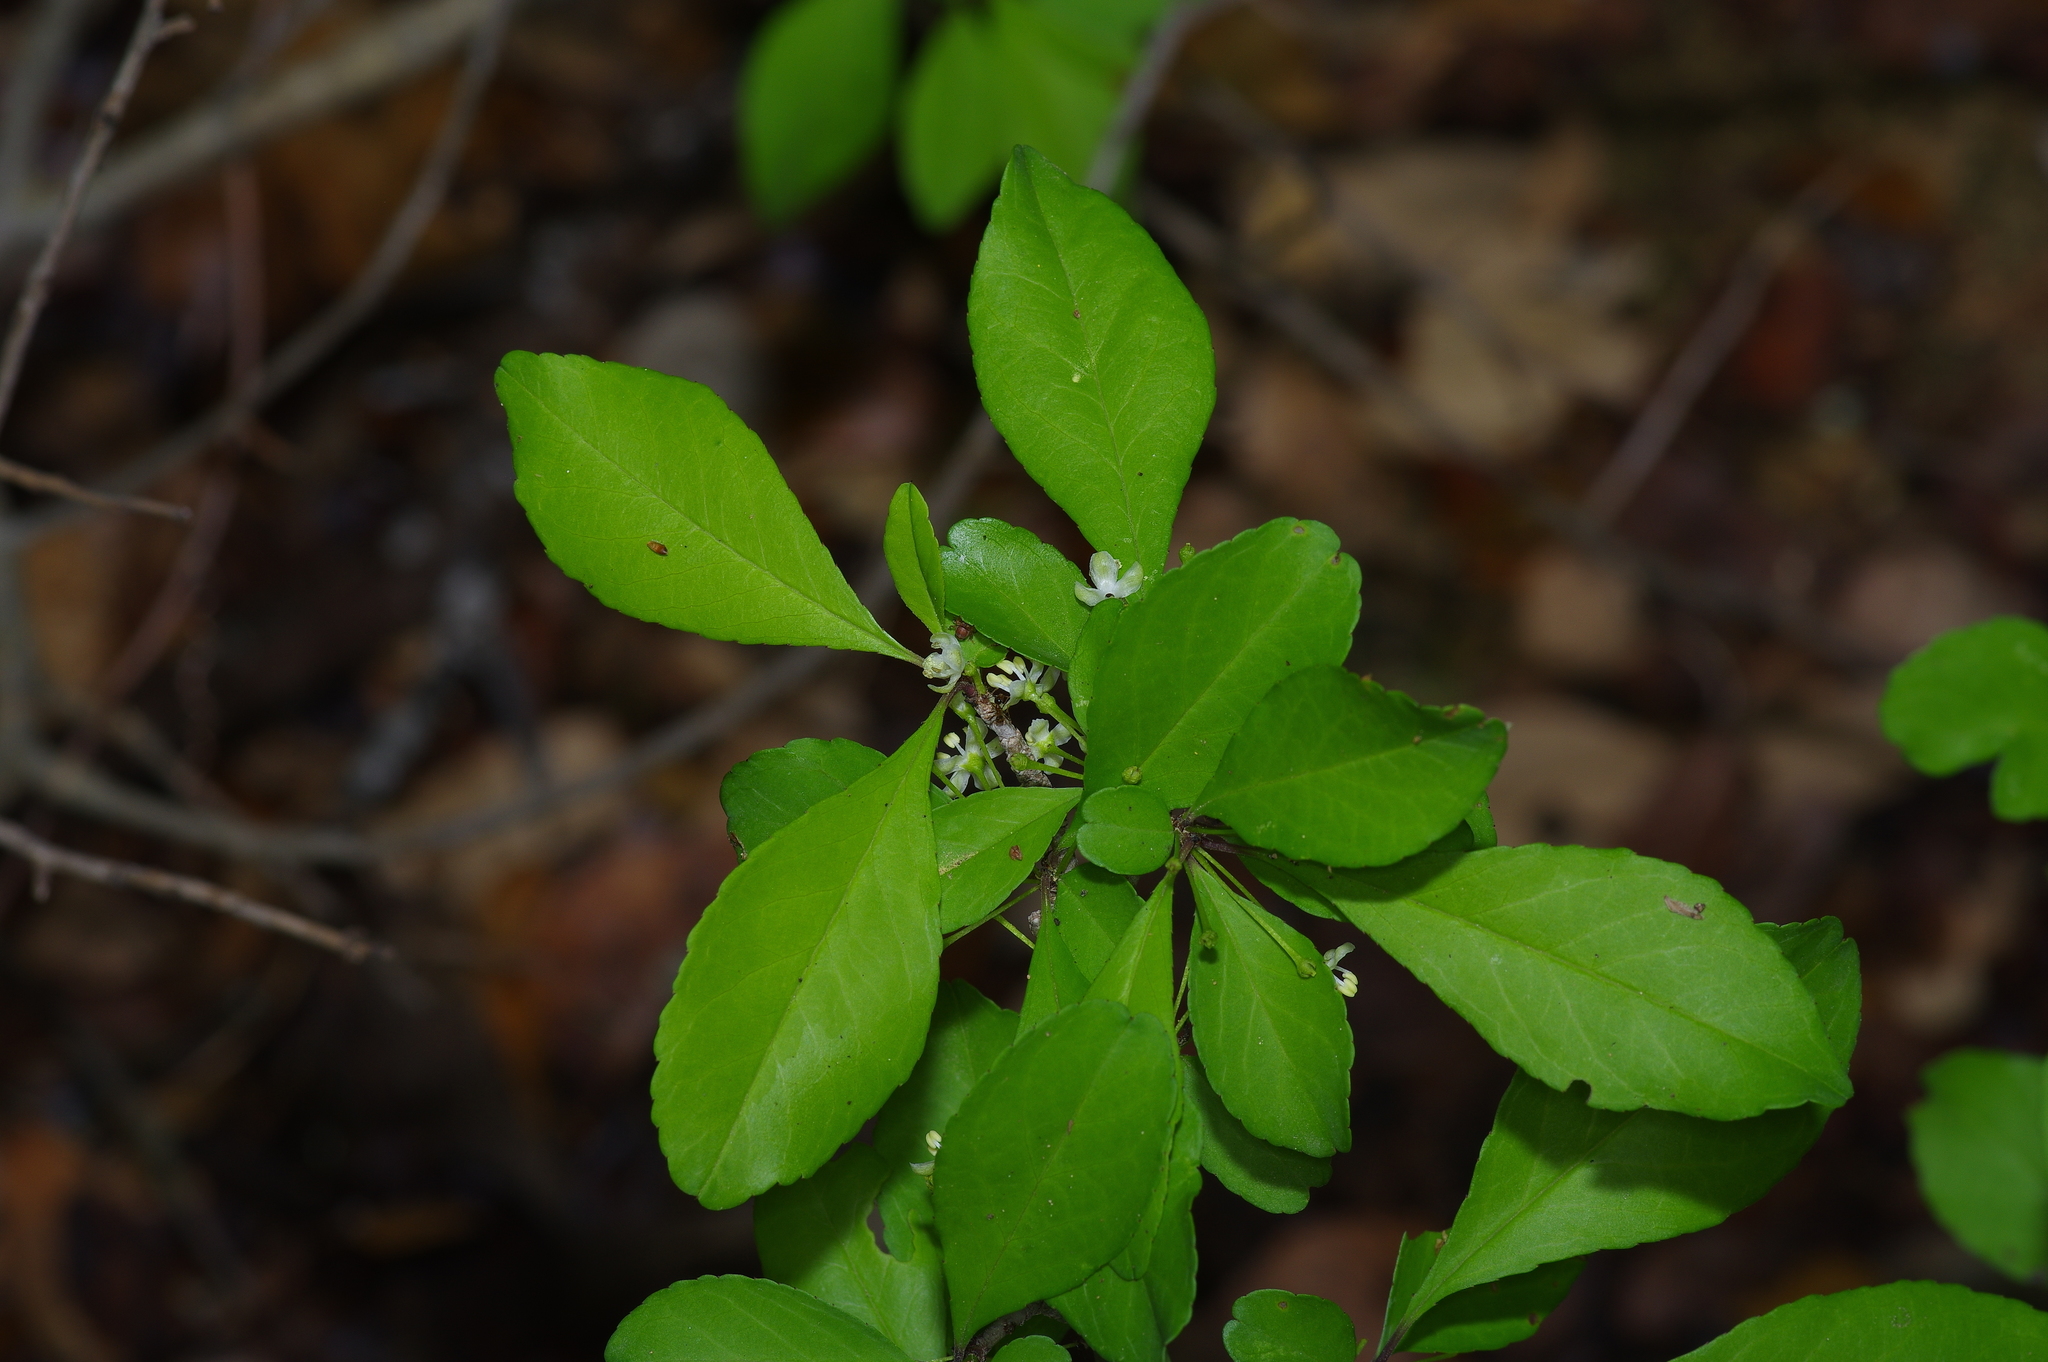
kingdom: Plantae
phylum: Tracheophyta
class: Magnoliopsida
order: Aquifoliales
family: Aquifoliaceae
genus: Ilex
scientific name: Ilex decidua
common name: Possum-haw
